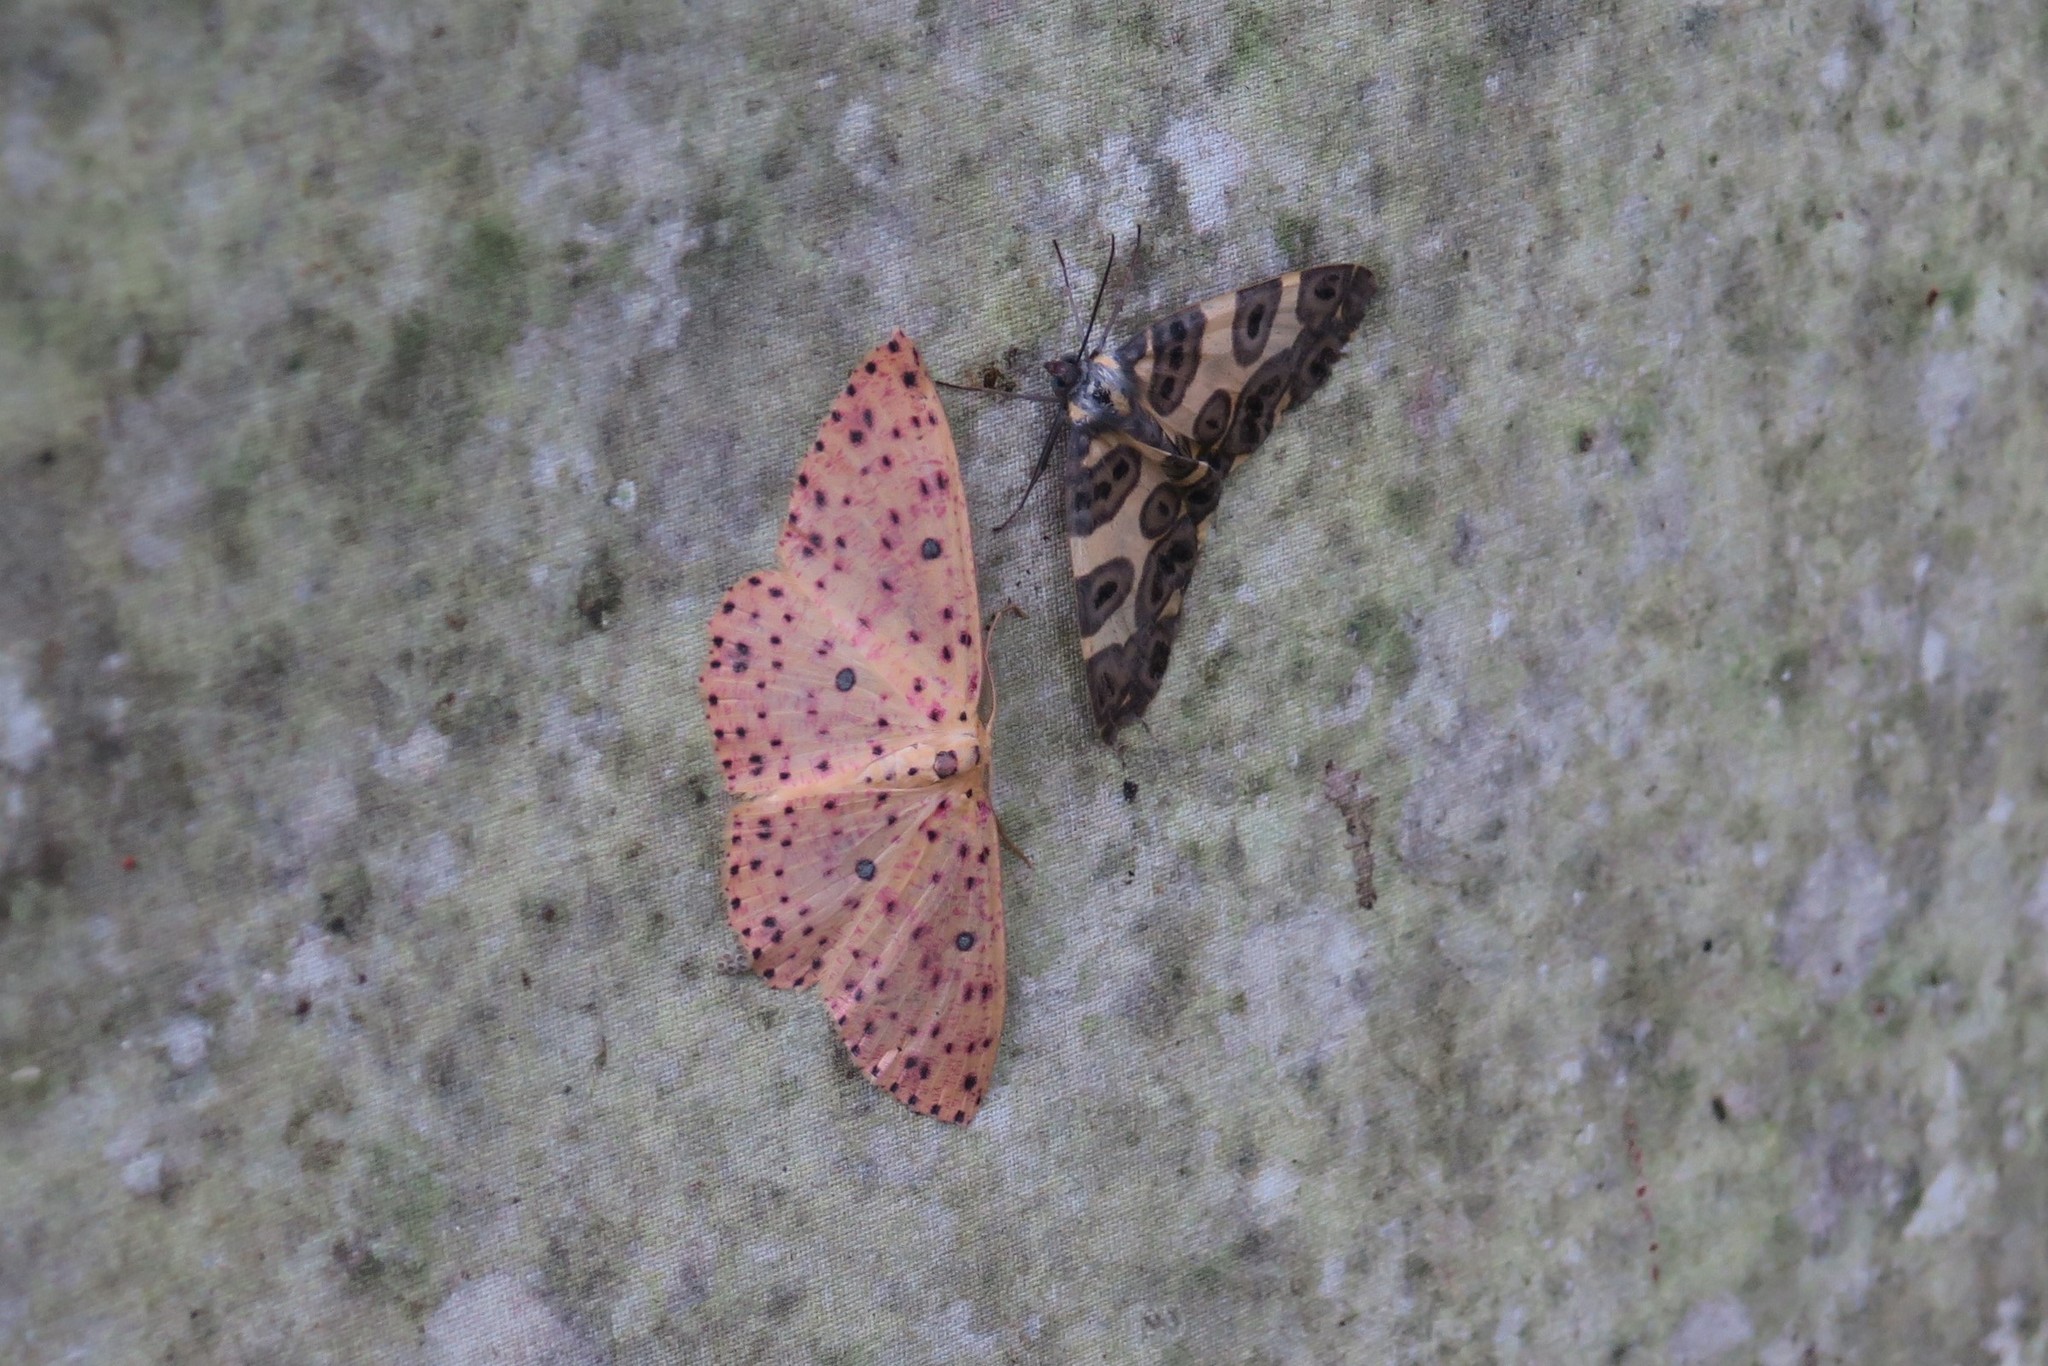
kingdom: Animalia
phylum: Arthropoda
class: Insecta
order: Lepidoptera
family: Geometridae
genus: Cyclophora
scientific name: Cyclophora
